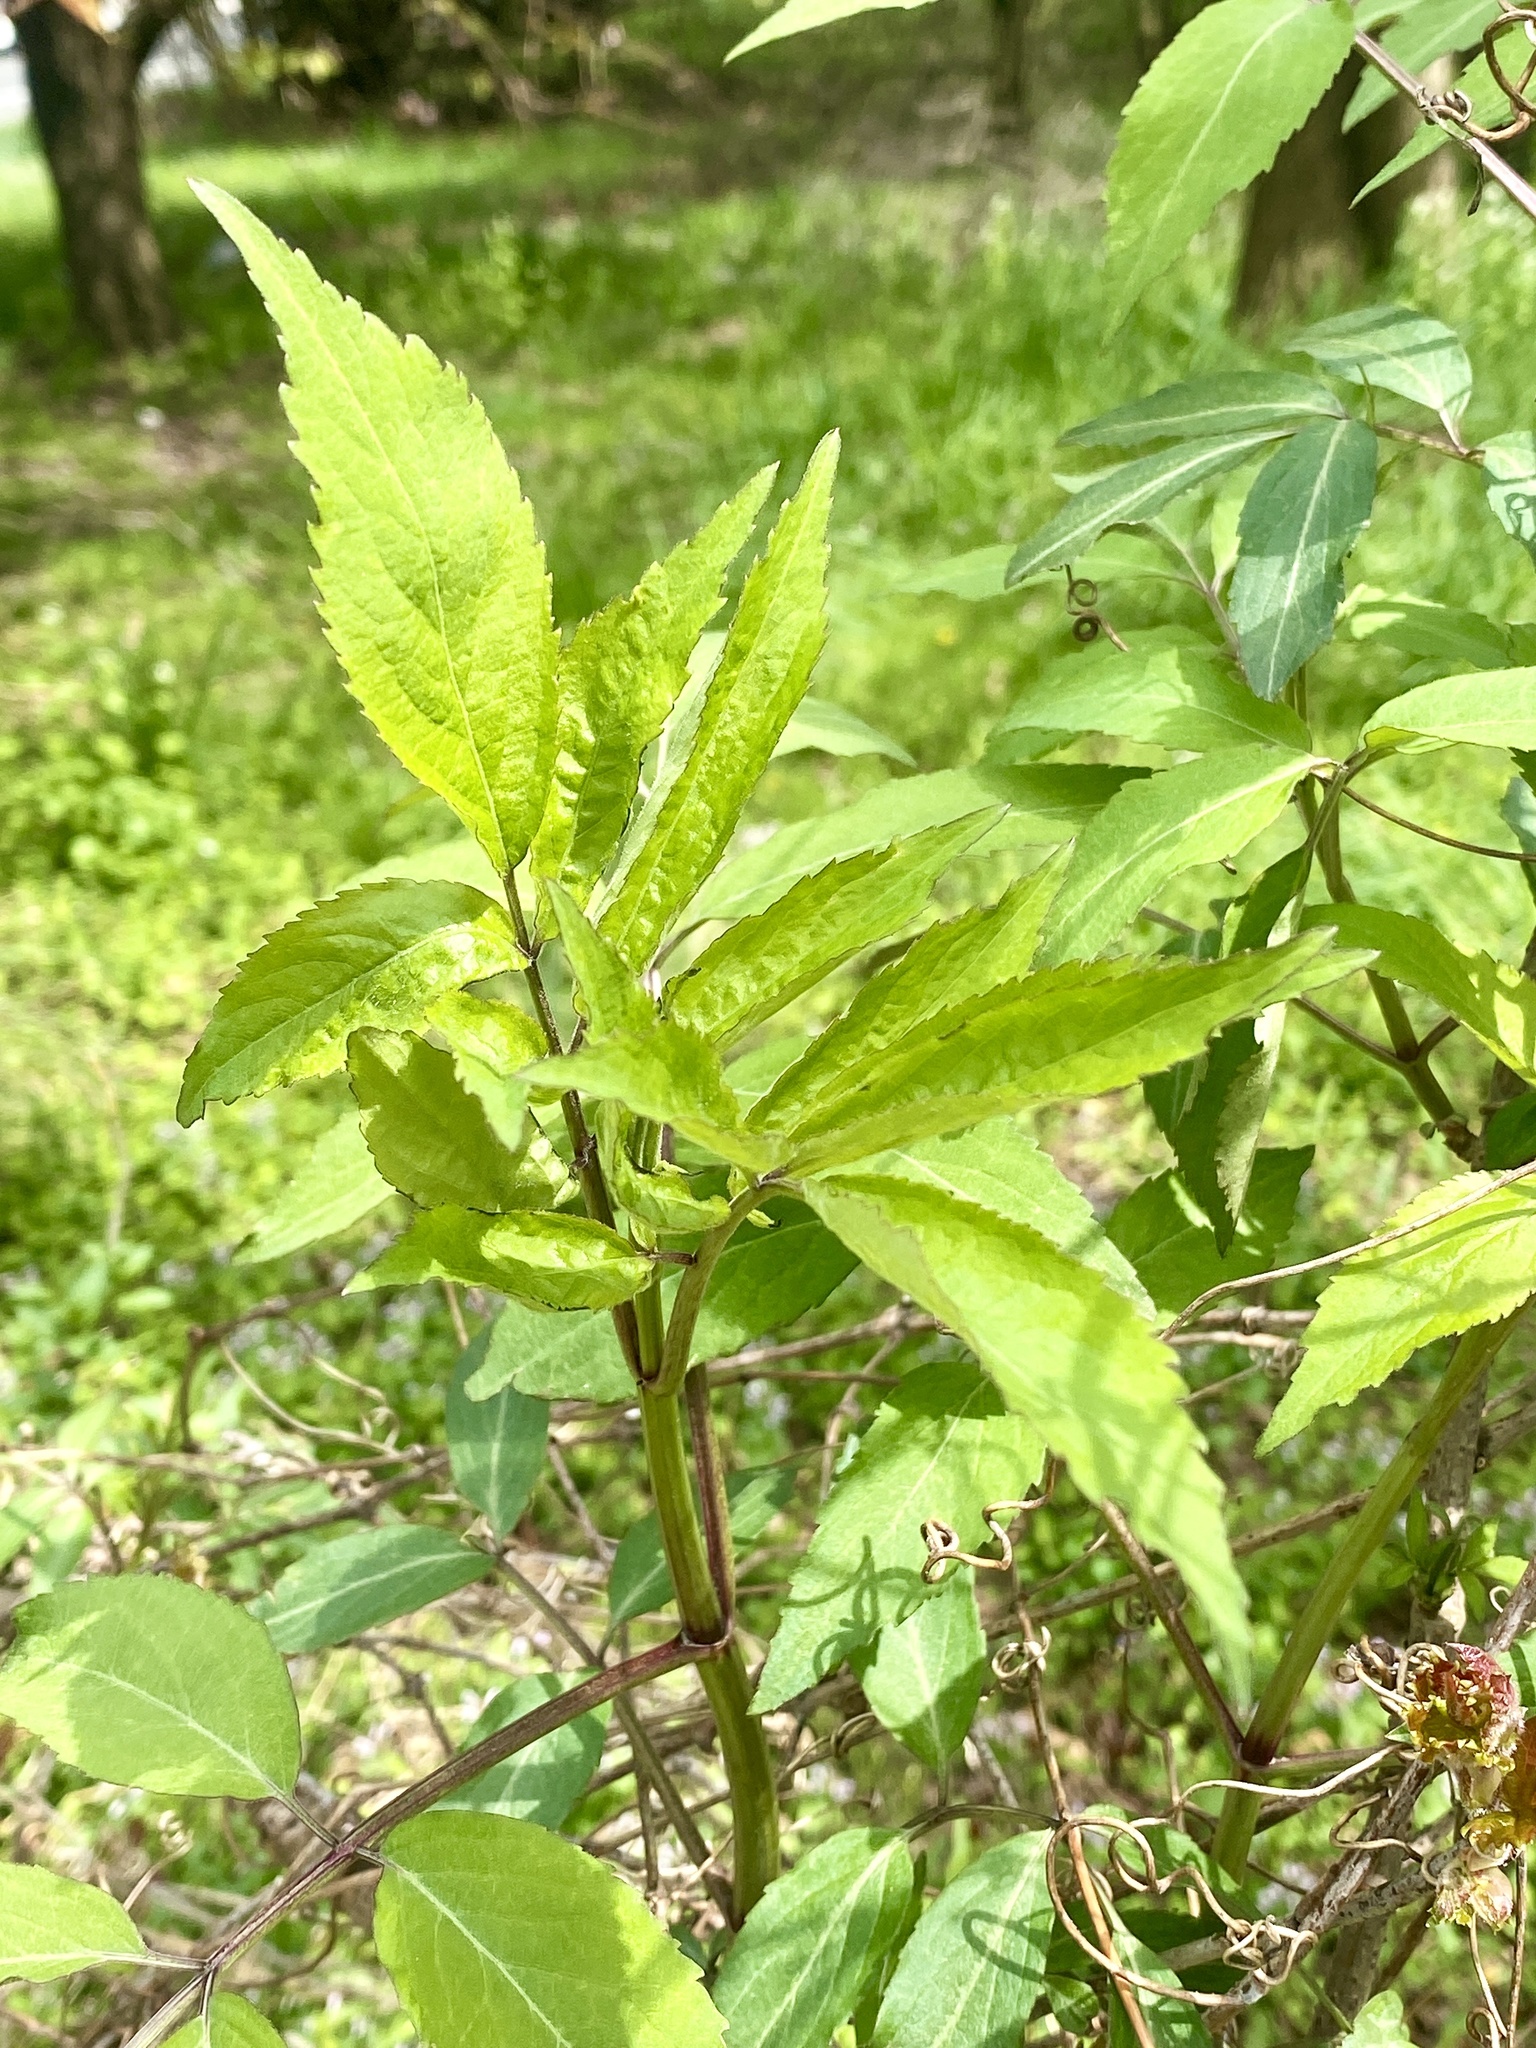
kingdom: Plantae
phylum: Tracheophyta
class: Magnoliopsida
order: Dipsacales
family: Viburnaceae
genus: Sambucus
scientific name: Sambucus canadensis
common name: American elder
